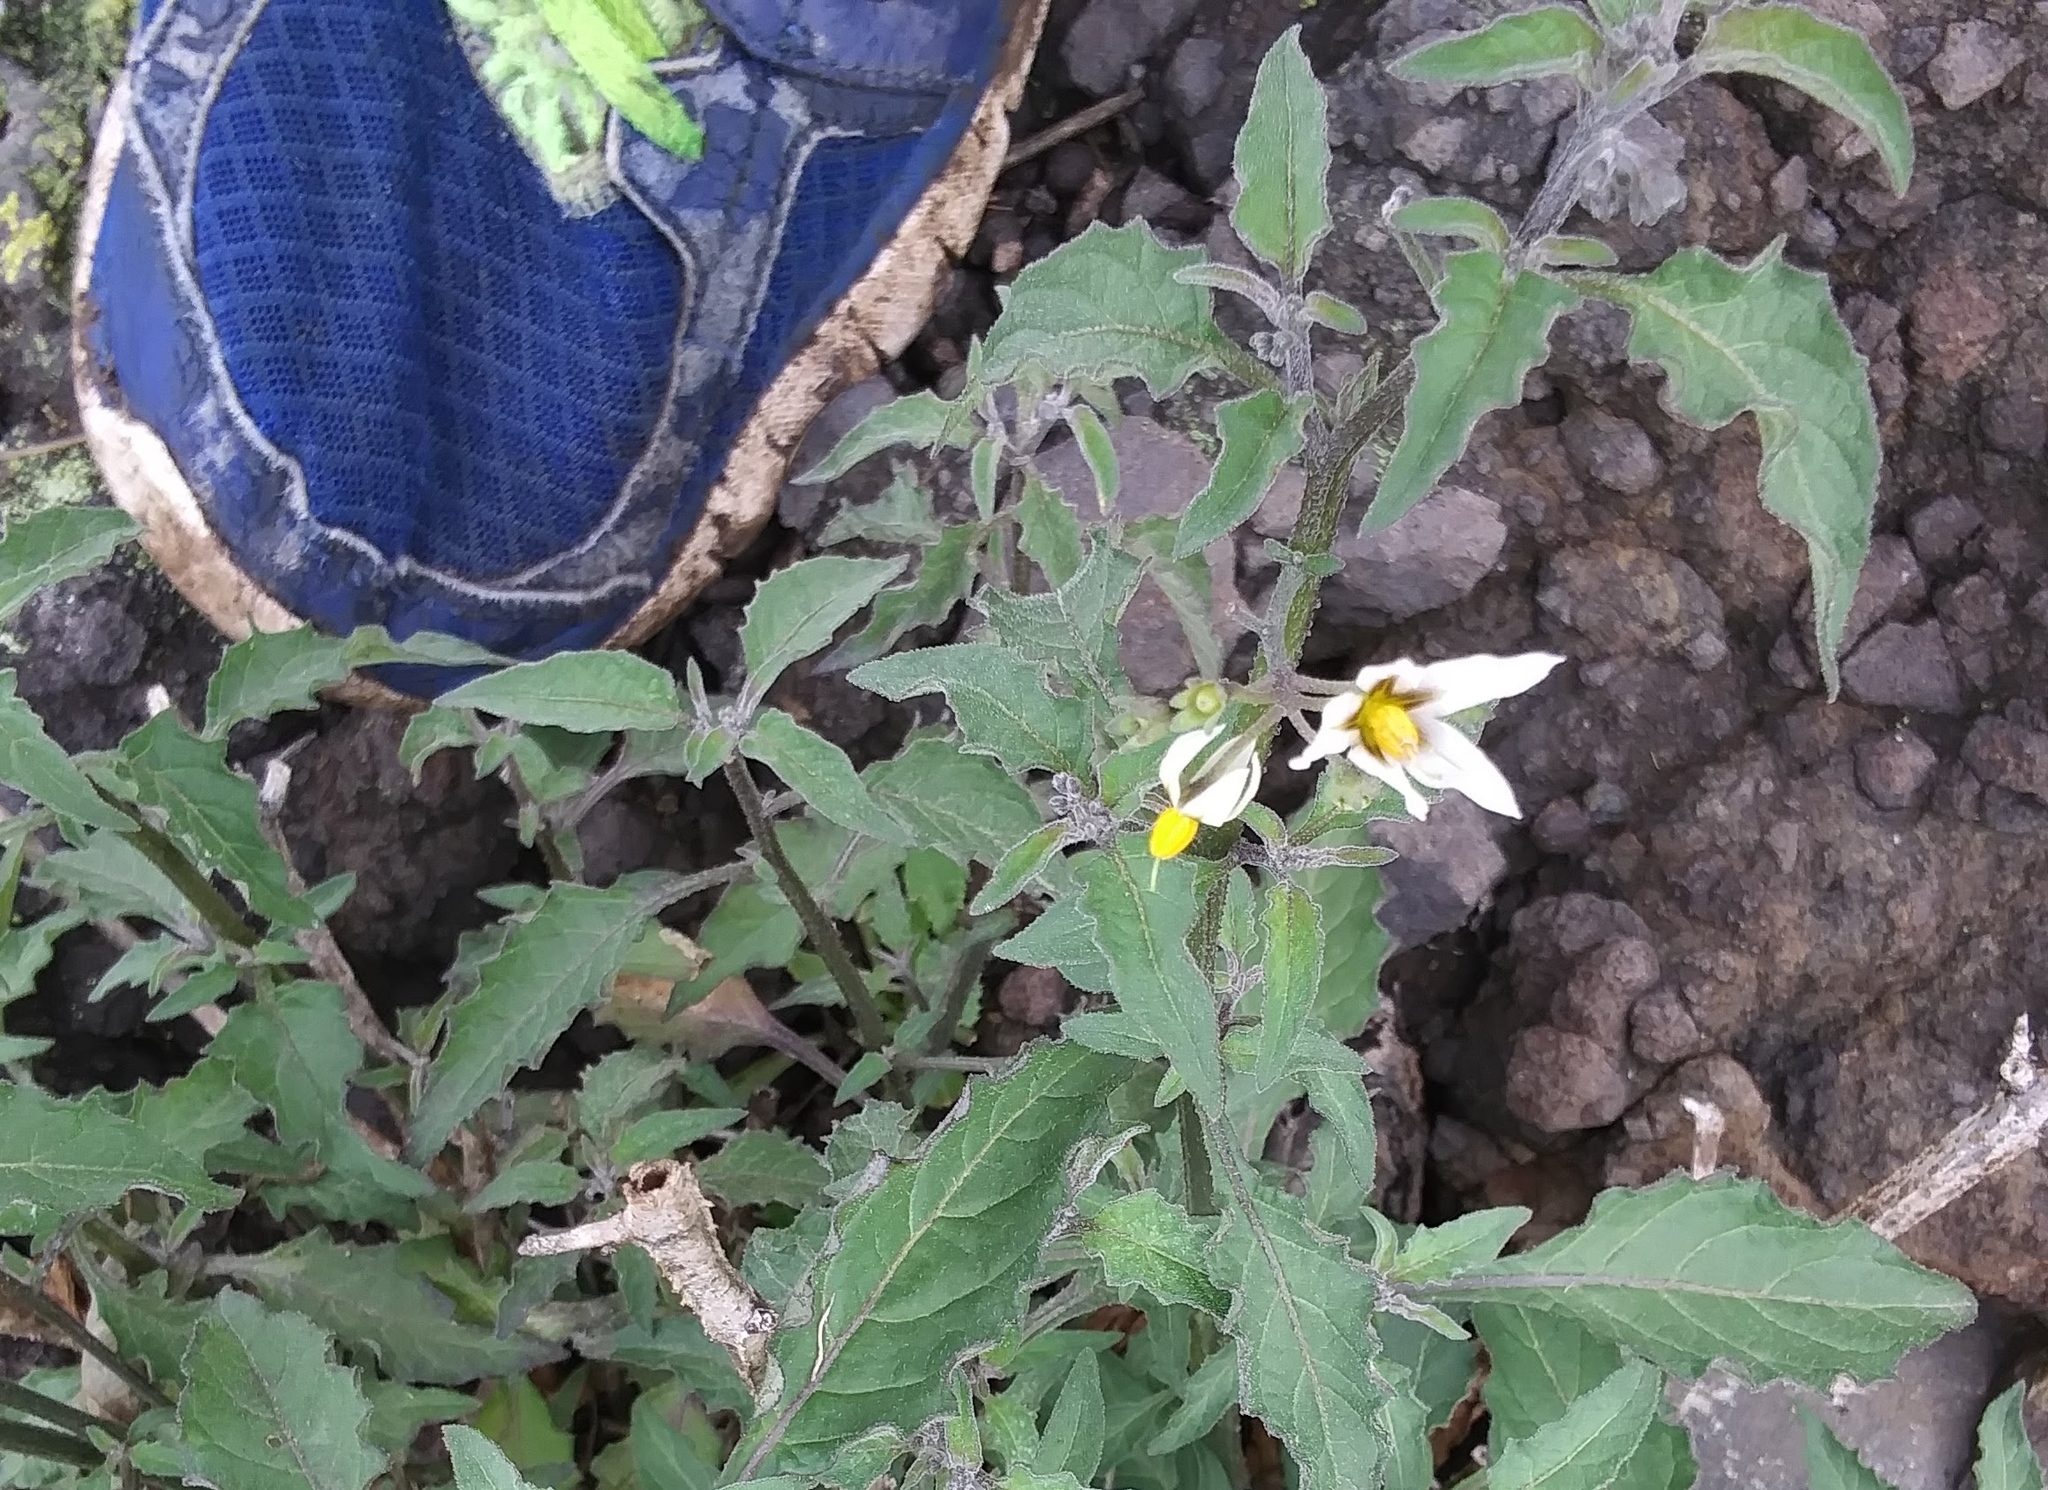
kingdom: Plantae
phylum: Tracheophyta
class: Magnoliopsida
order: Solanales
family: Solanaceae
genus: Solanum
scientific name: Solanum douglasii
